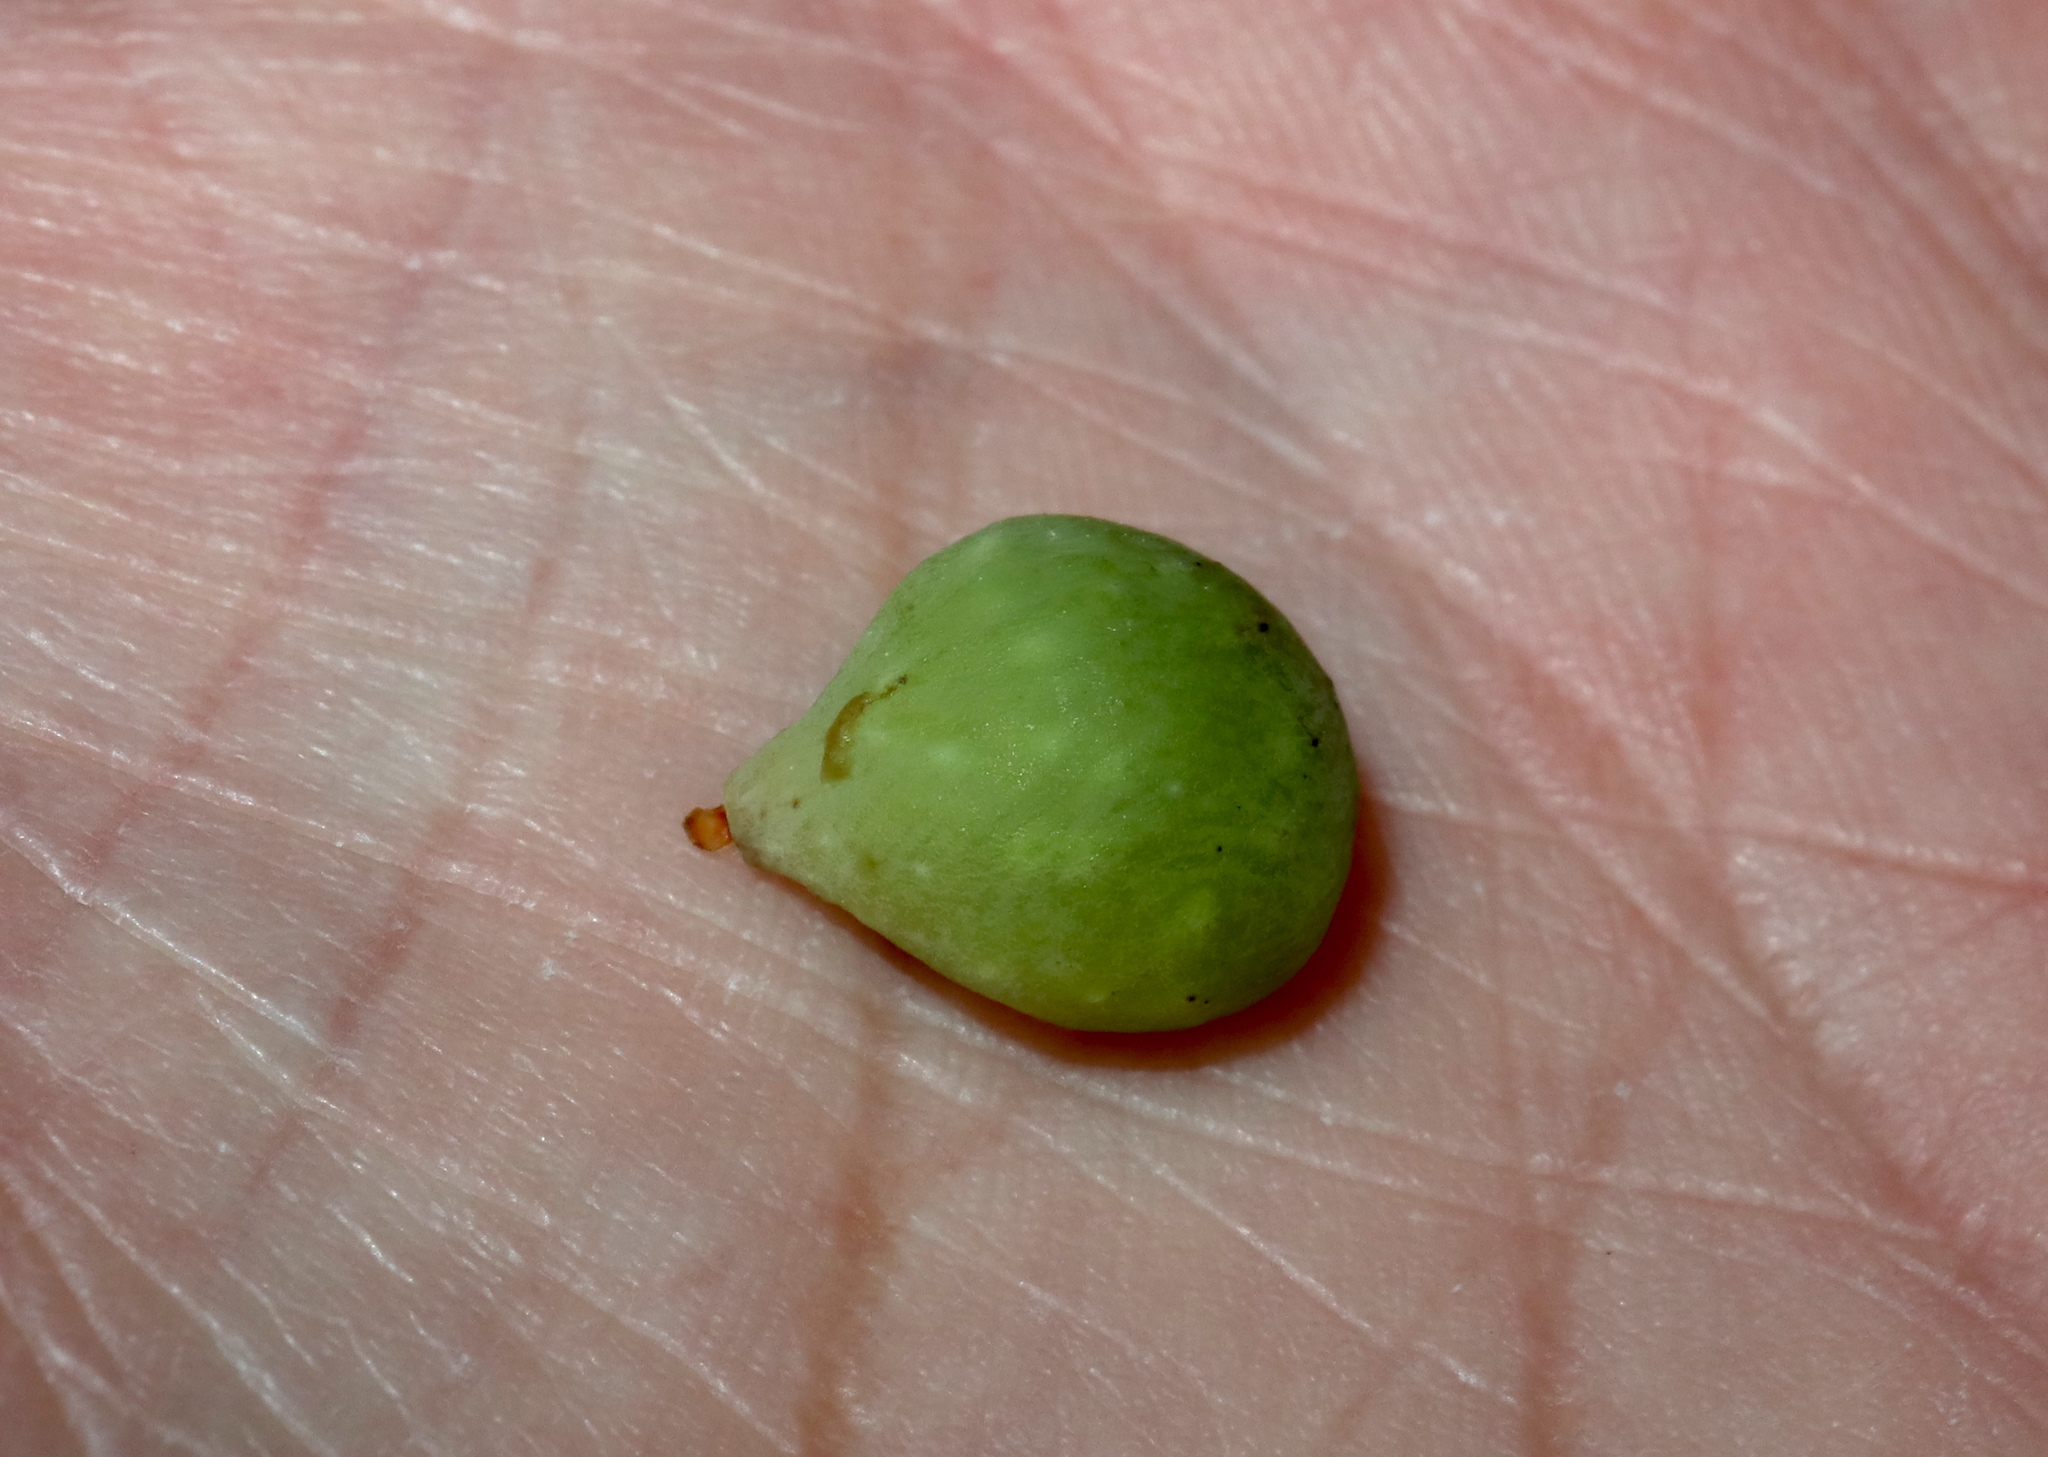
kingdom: Animalia
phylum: Arthropoda
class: Insecta
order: Hymenoptera
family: Cynipidae
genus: Amphibolips
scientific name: Amphibolips
